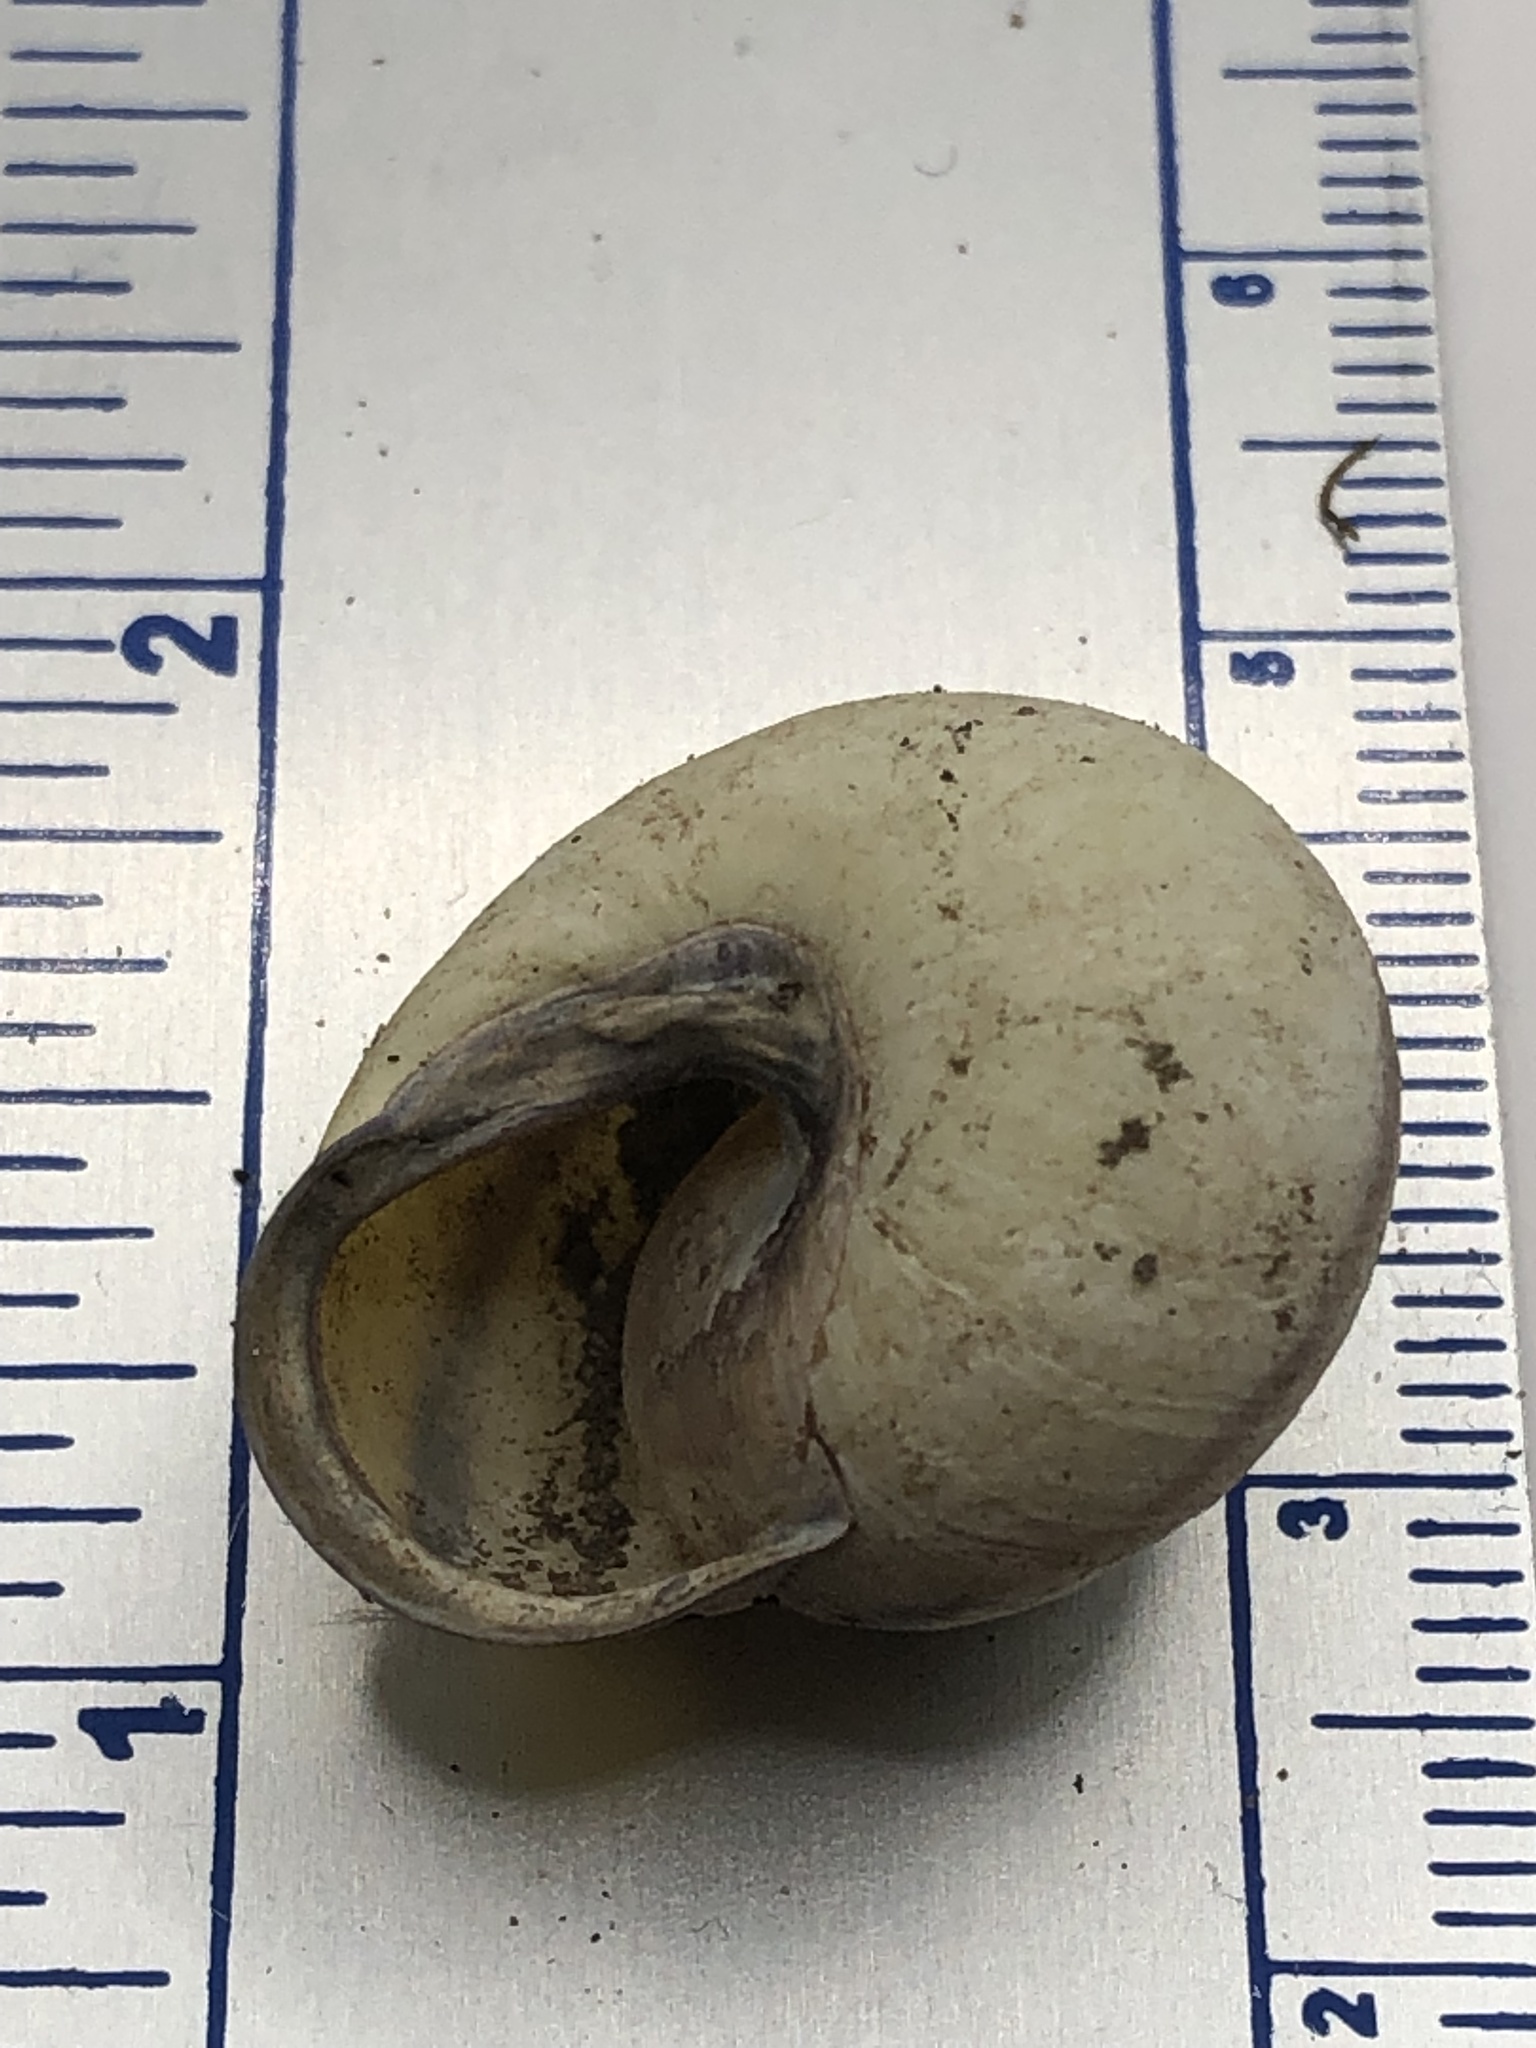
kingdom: Animalia
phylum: Mollusca
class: Gastropoda
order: Stylommatophora
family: Helicidae
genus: Cepaea
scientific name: Cepaea nemoralis
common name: Grovesnail
